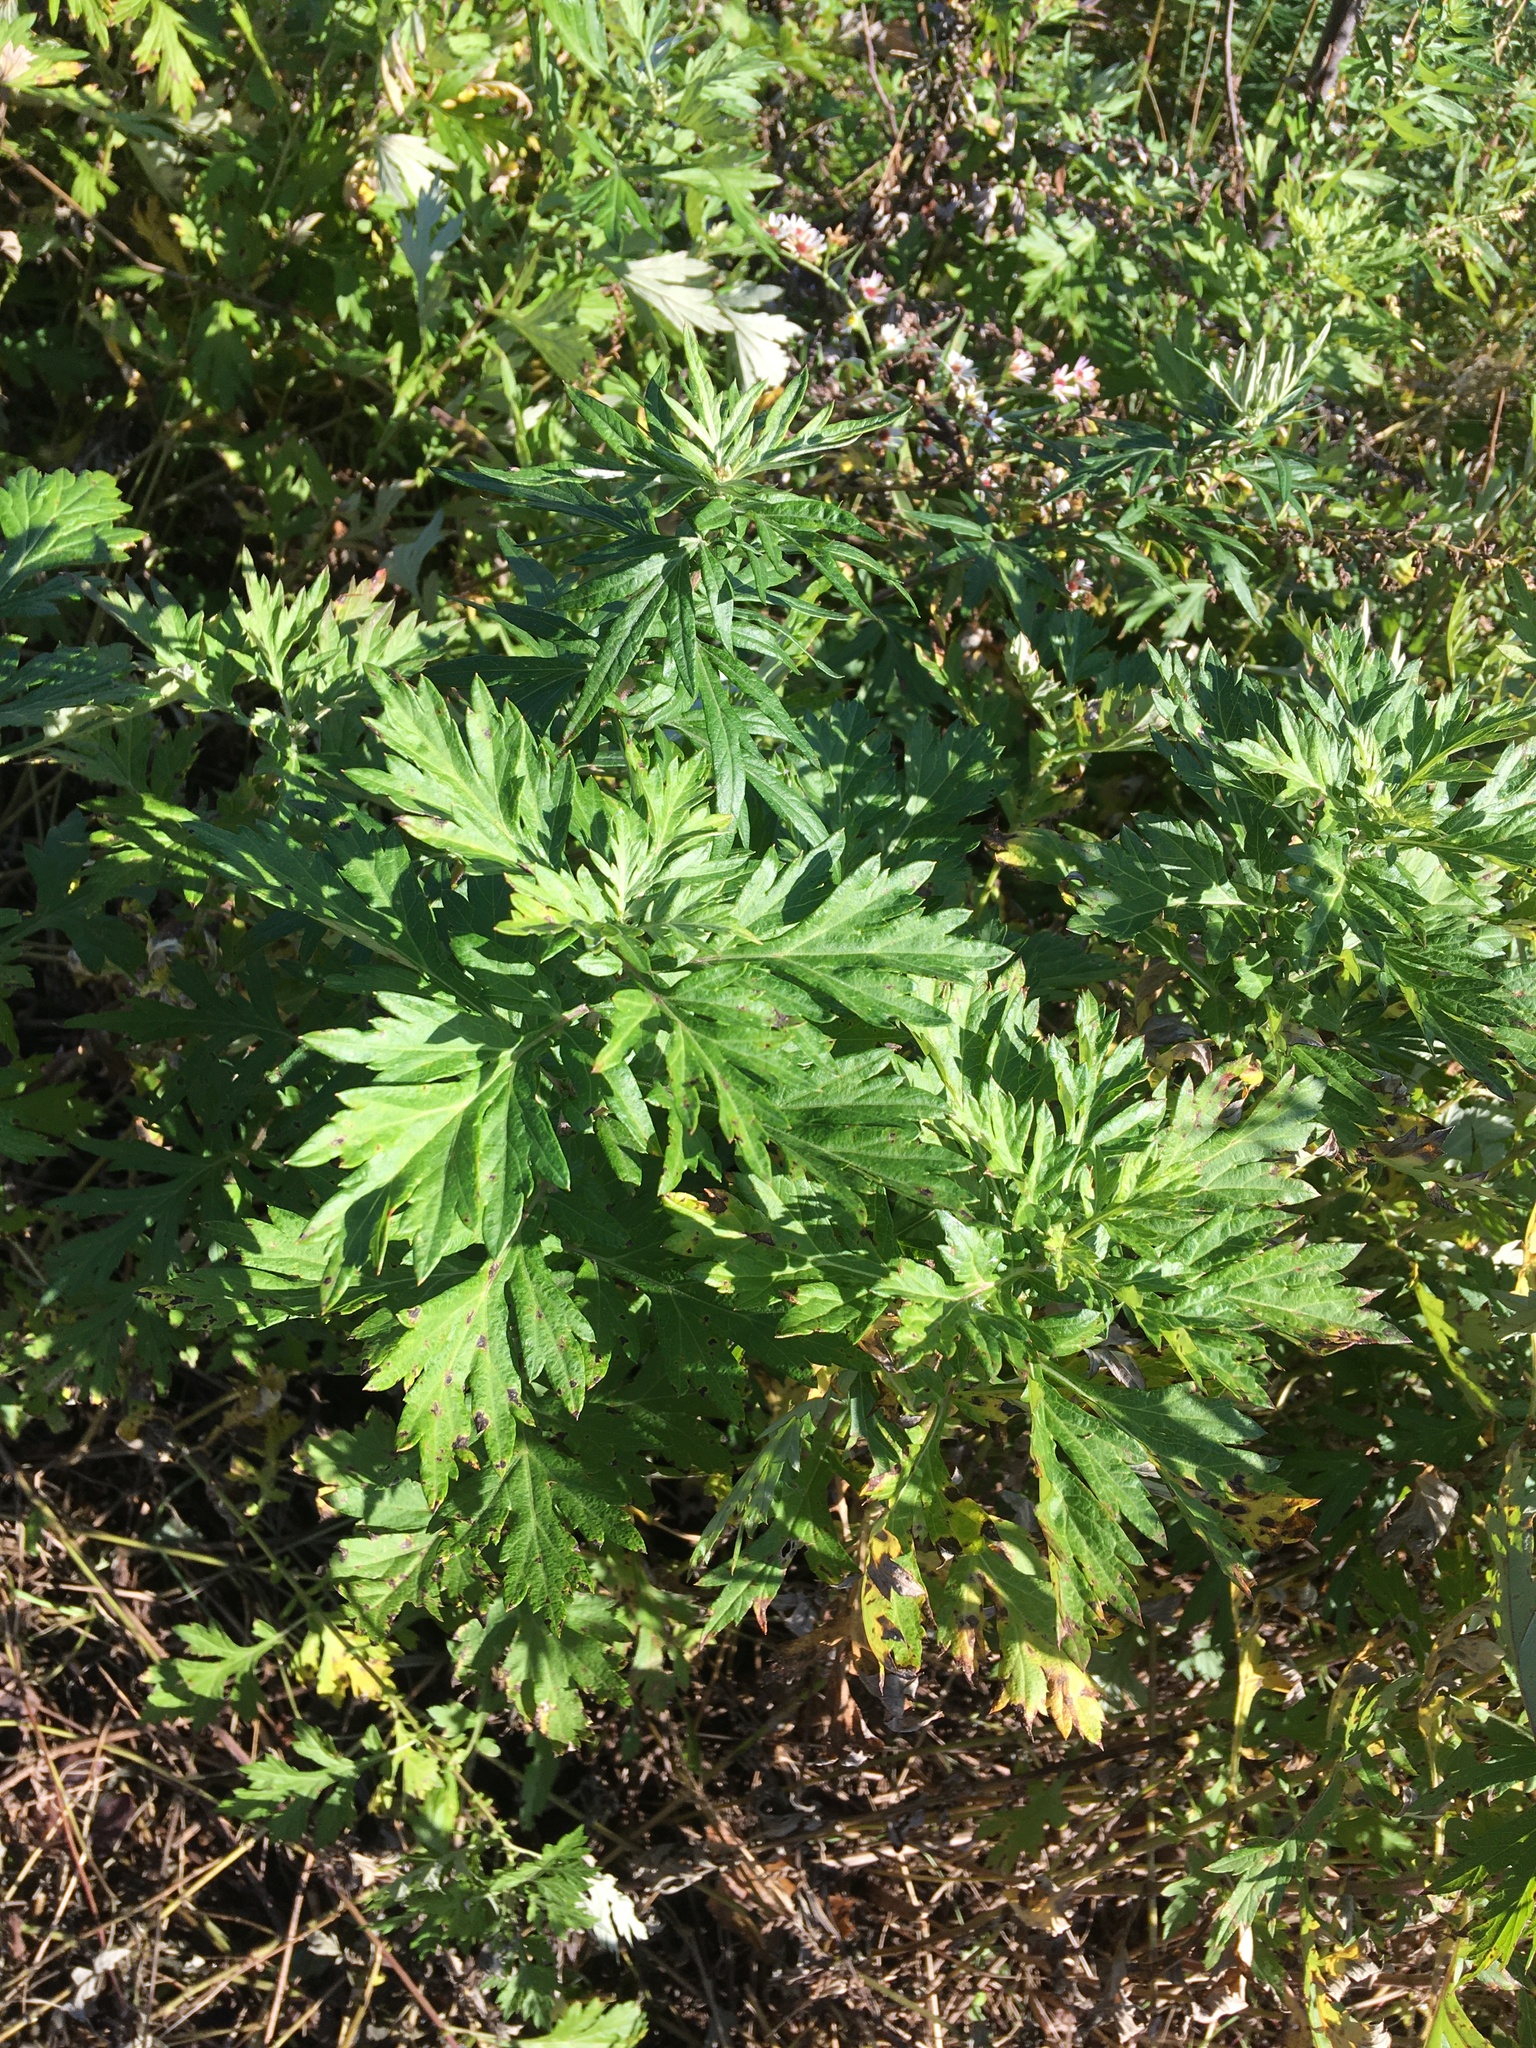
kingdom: Plantae
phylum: Tracheophyta
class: Magnoliopsida
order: Asterales
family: Asteraceae
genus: Artemisia
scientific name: Artemisia vulgaris
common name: Mugwort
